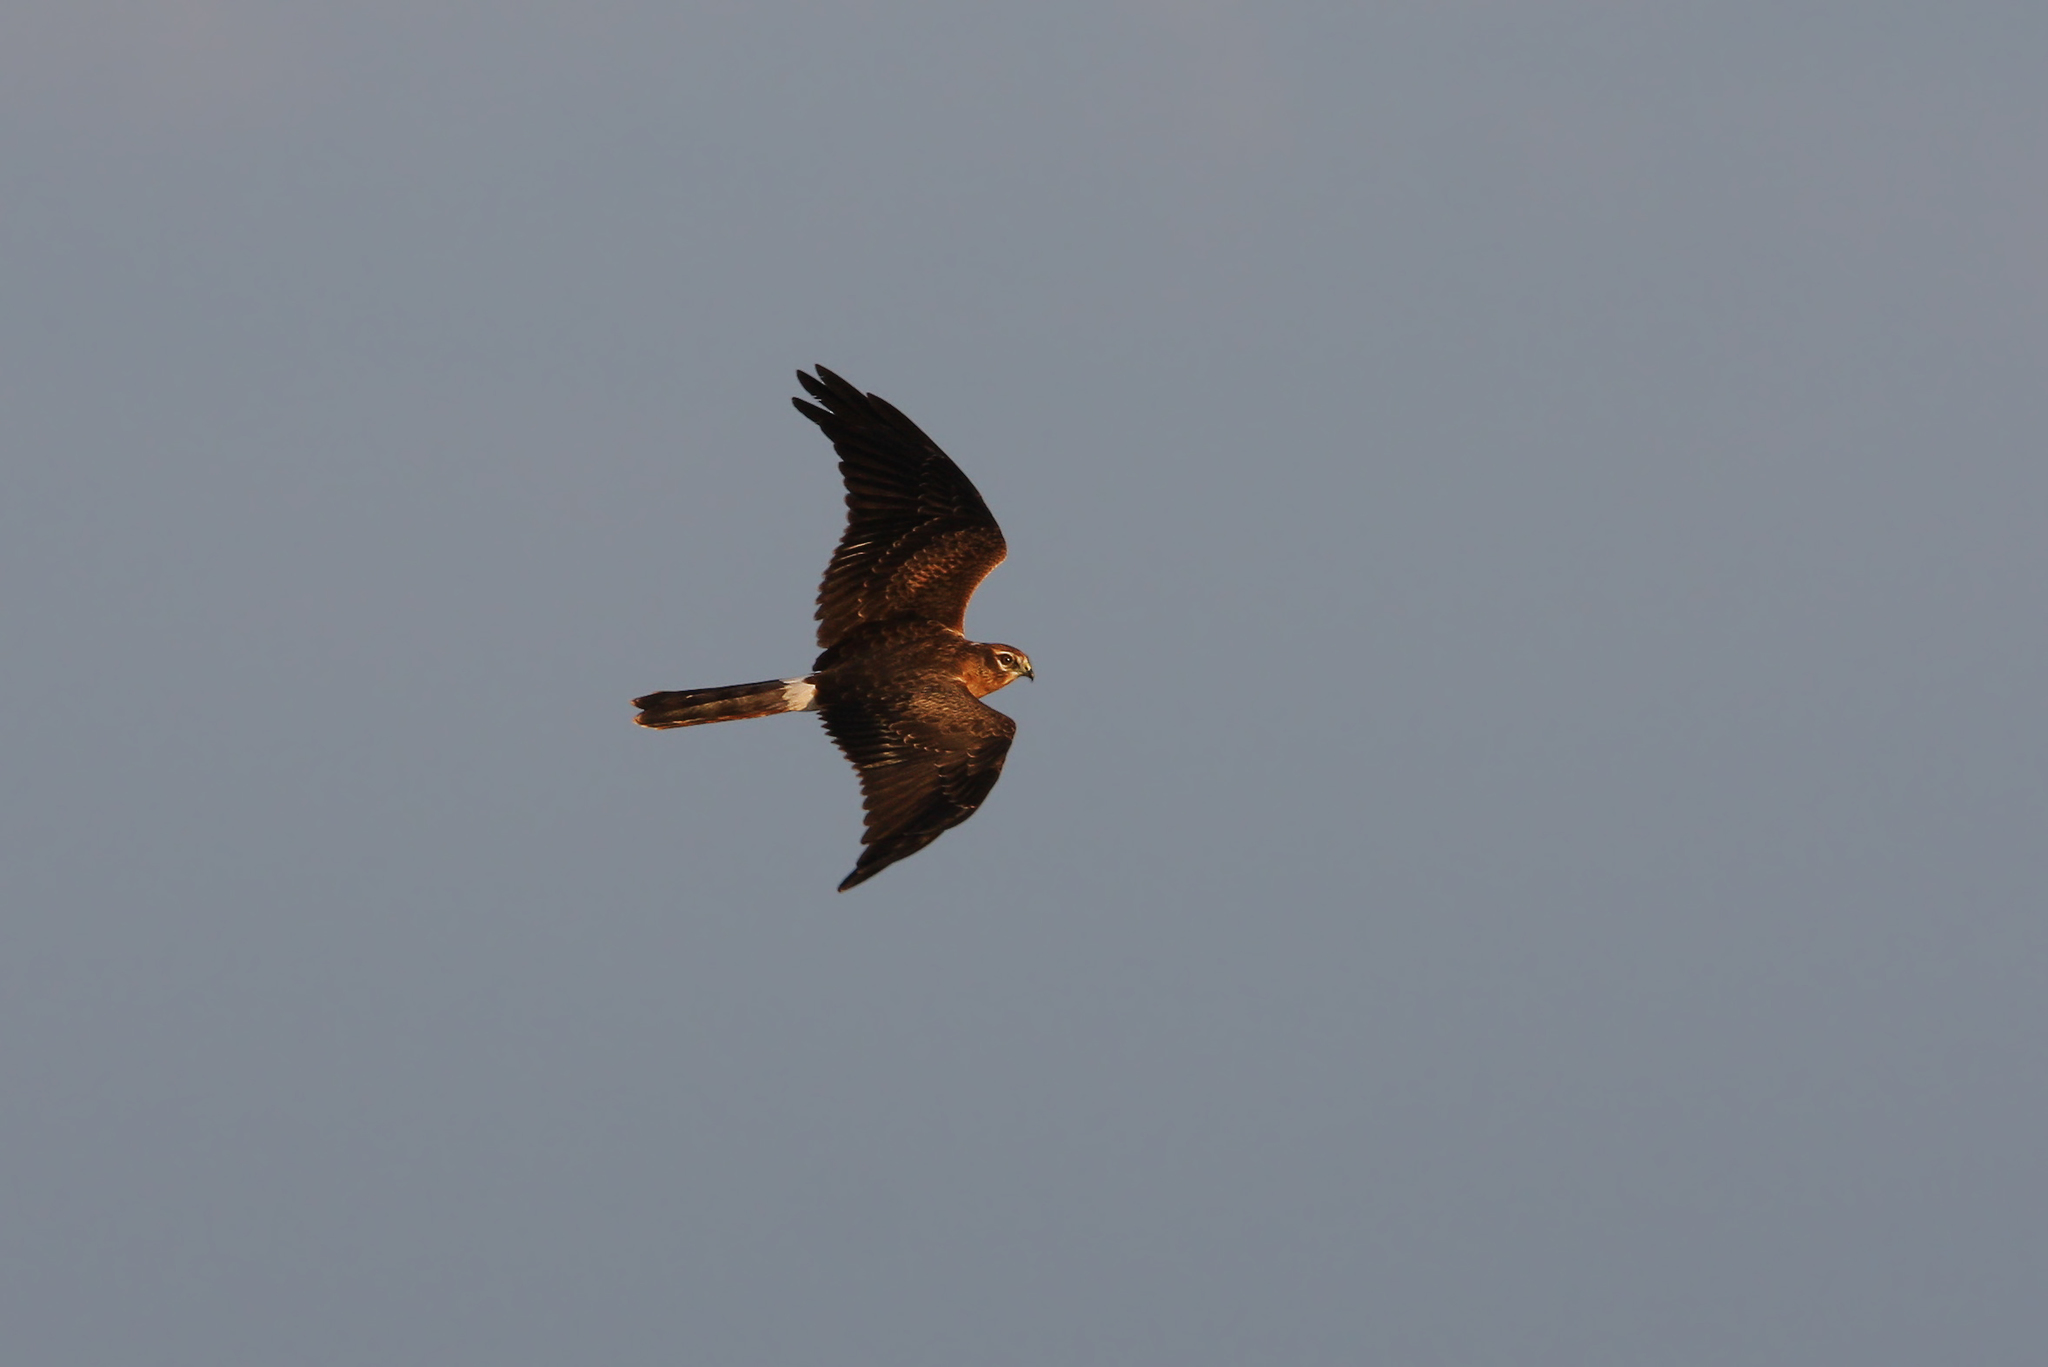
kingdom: Animalia
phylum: Chordata
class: Aves
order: Accipitriformes
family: Accipitridae
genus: Circus
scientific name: Circus pygargus
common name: Montagu's harrier
